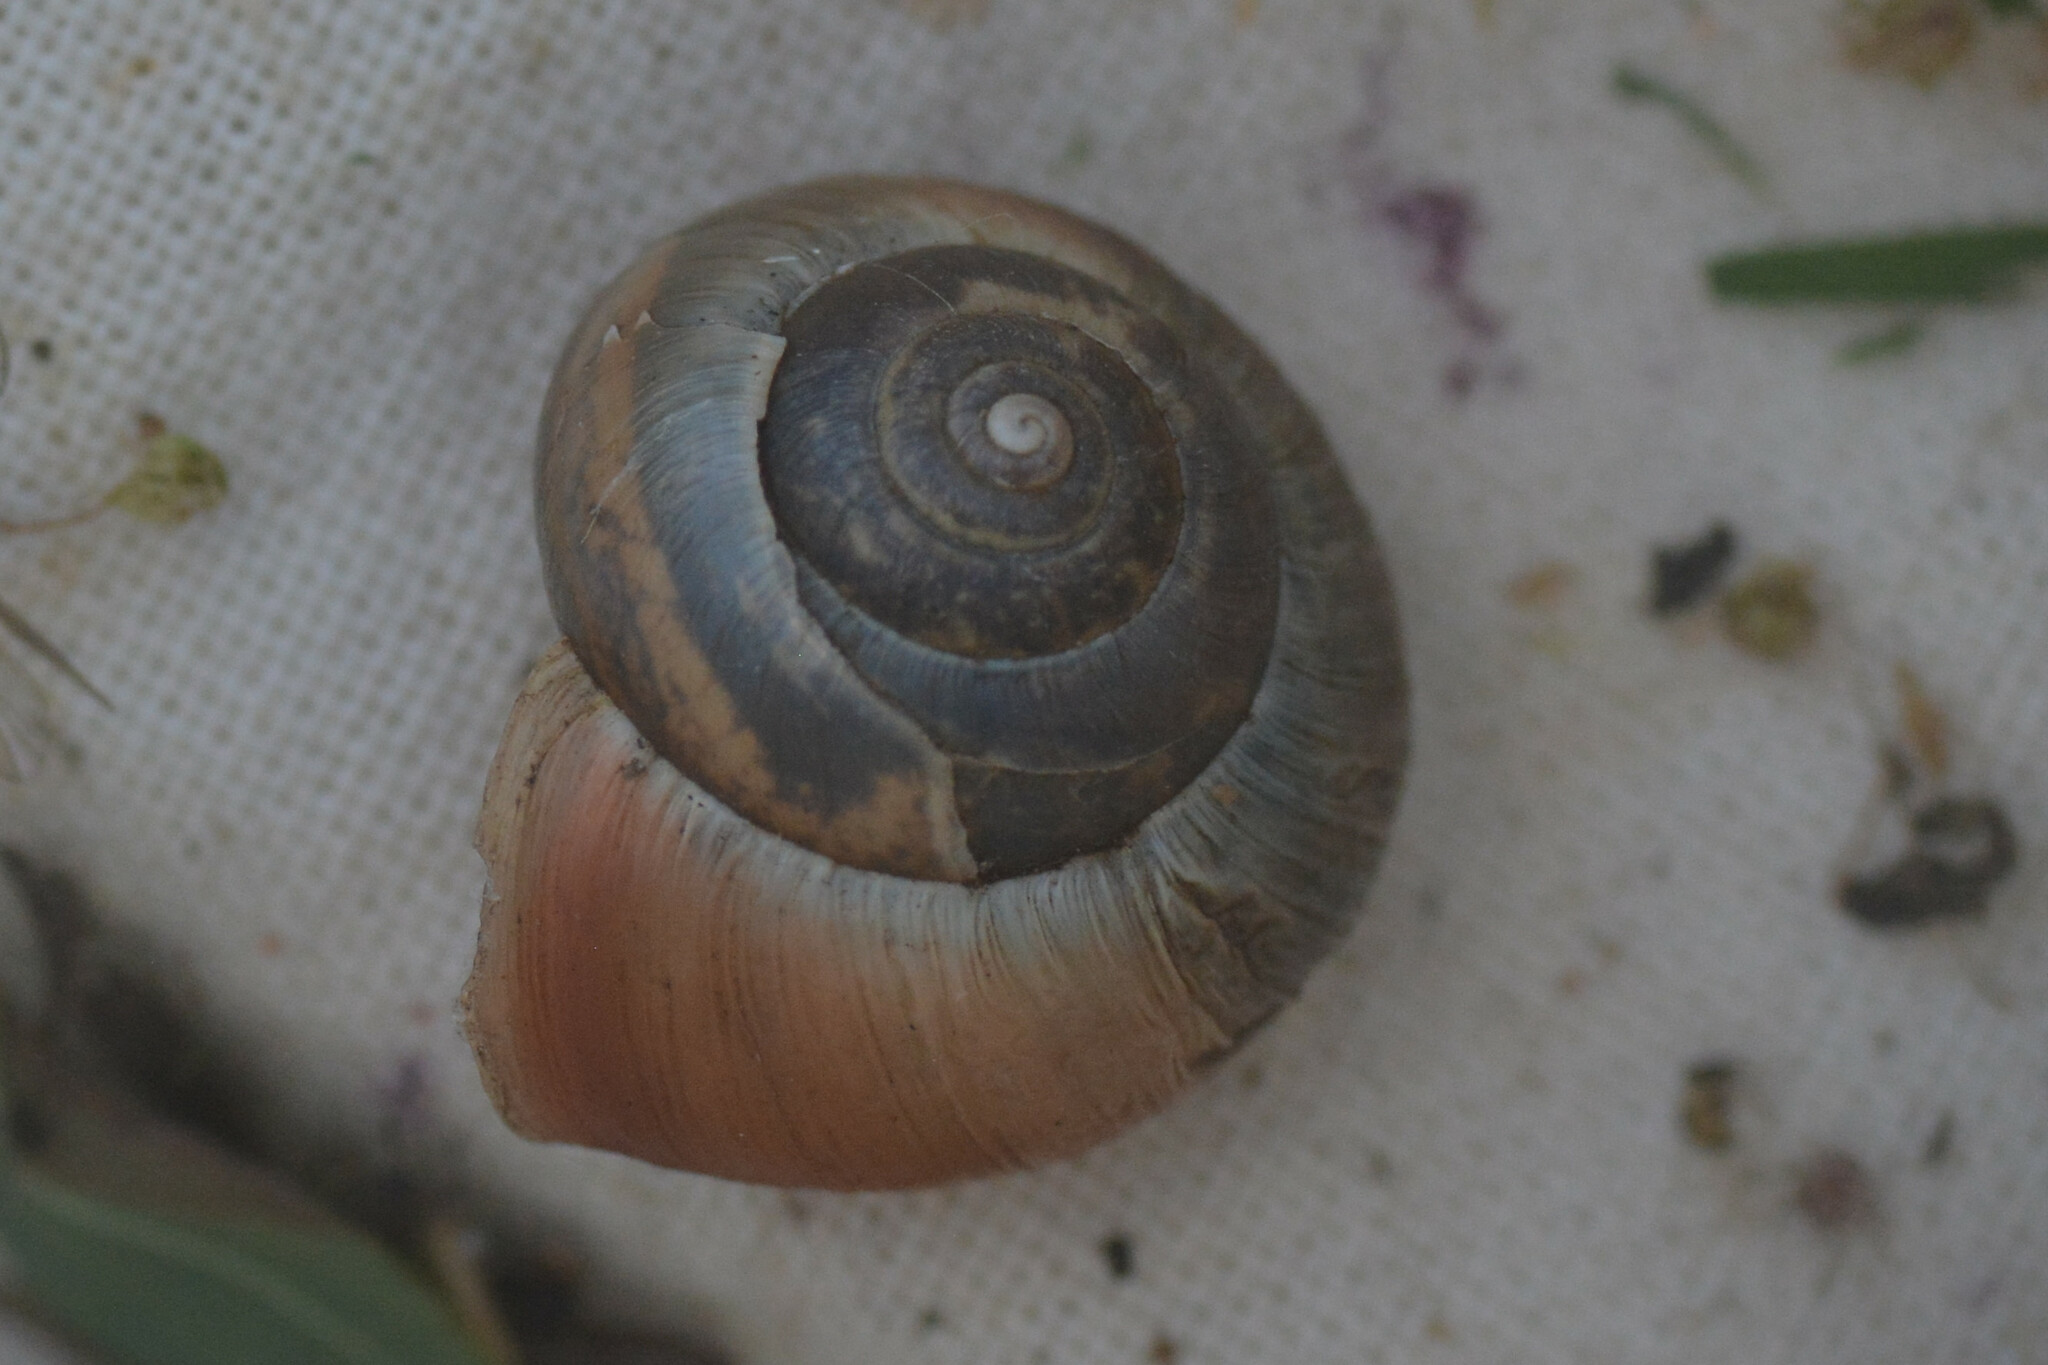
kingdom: Animalia
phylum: Mollusca
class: Gastropoda
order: Stylommatophora
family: Hygromiidae
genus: Monacha
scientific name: Monacha cantiana
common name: Kentish snail
